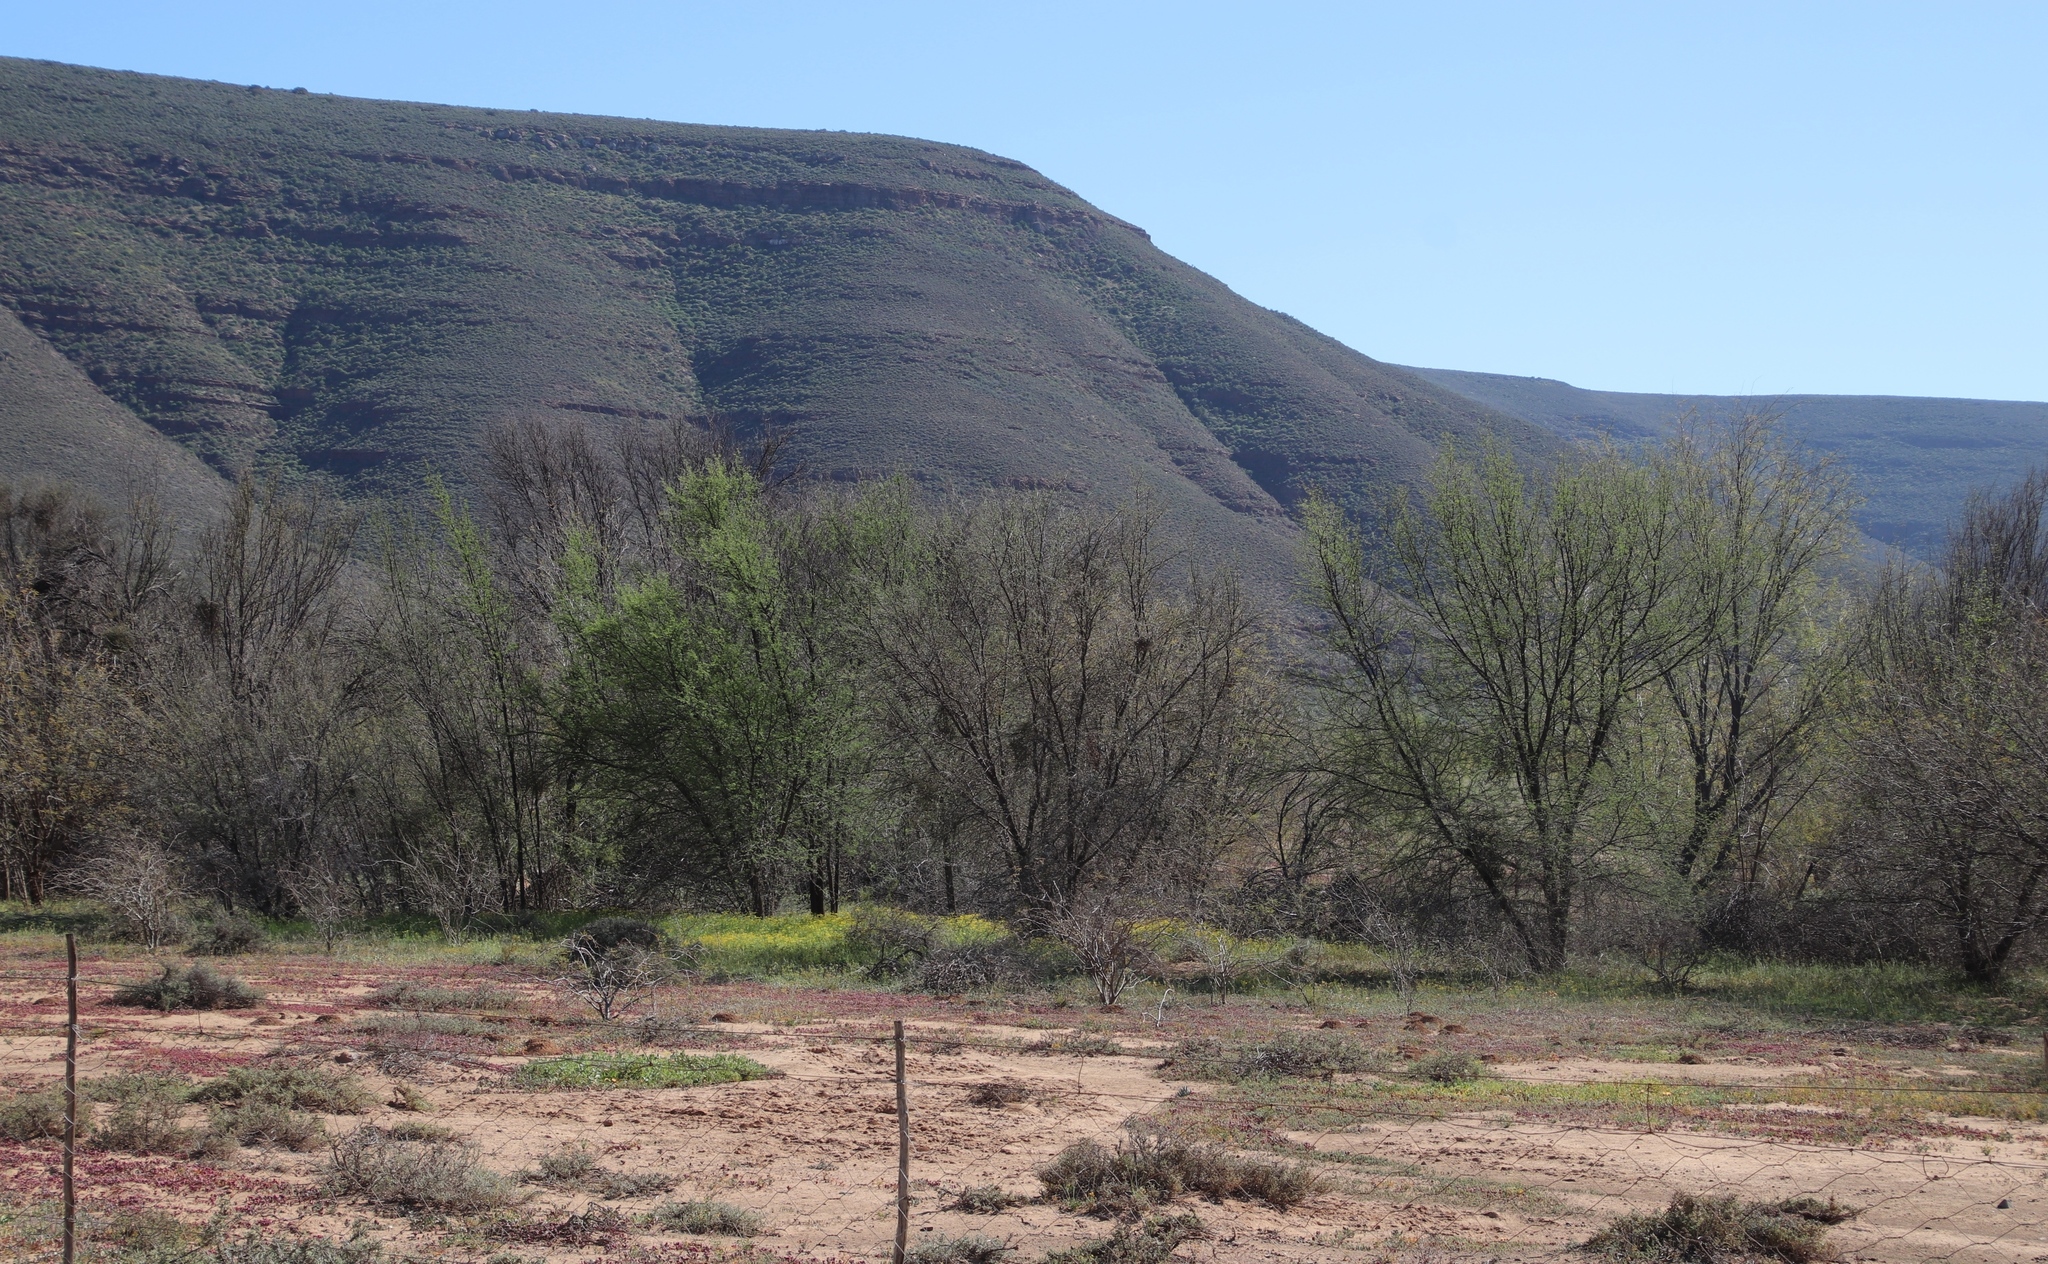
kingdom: Plantae
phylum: Tracheophyta
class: Magnoliopsida
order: Fabales
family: Fabaceae
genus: Vachellia
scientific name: Vachellia karroo
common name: Sweet thorn
